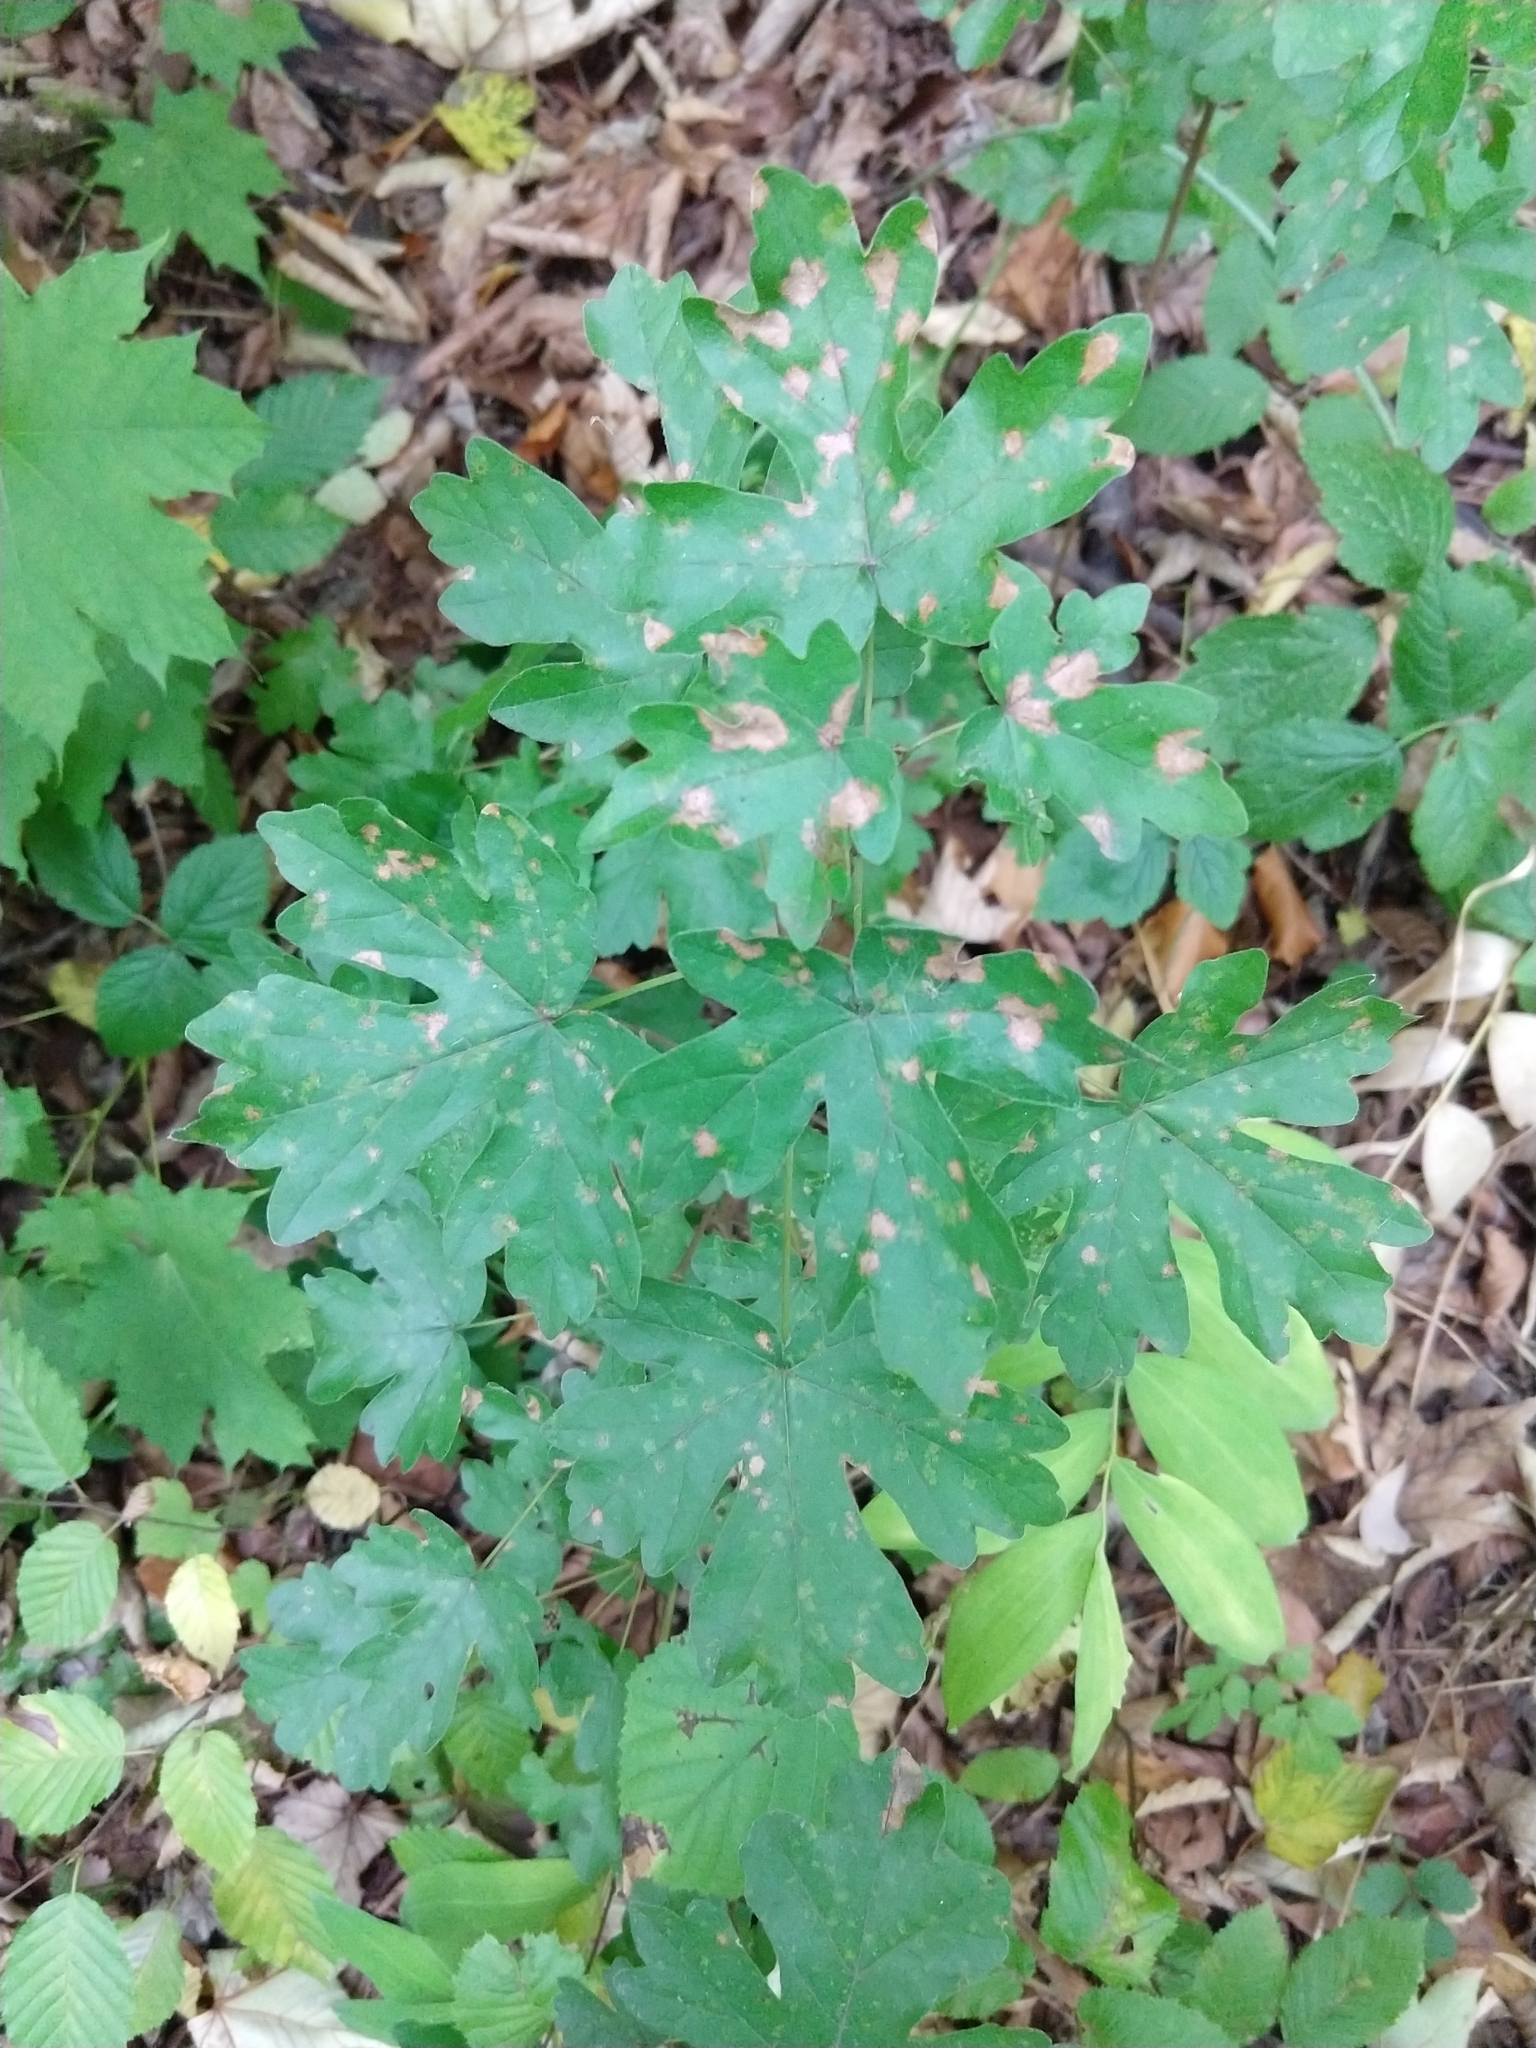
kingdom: Plantae
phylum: Tracheophyta
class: Magnoliopsida
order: Sapindales
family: Sapindaceae
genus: Acer
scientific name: Acer campestre
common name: Field maple
